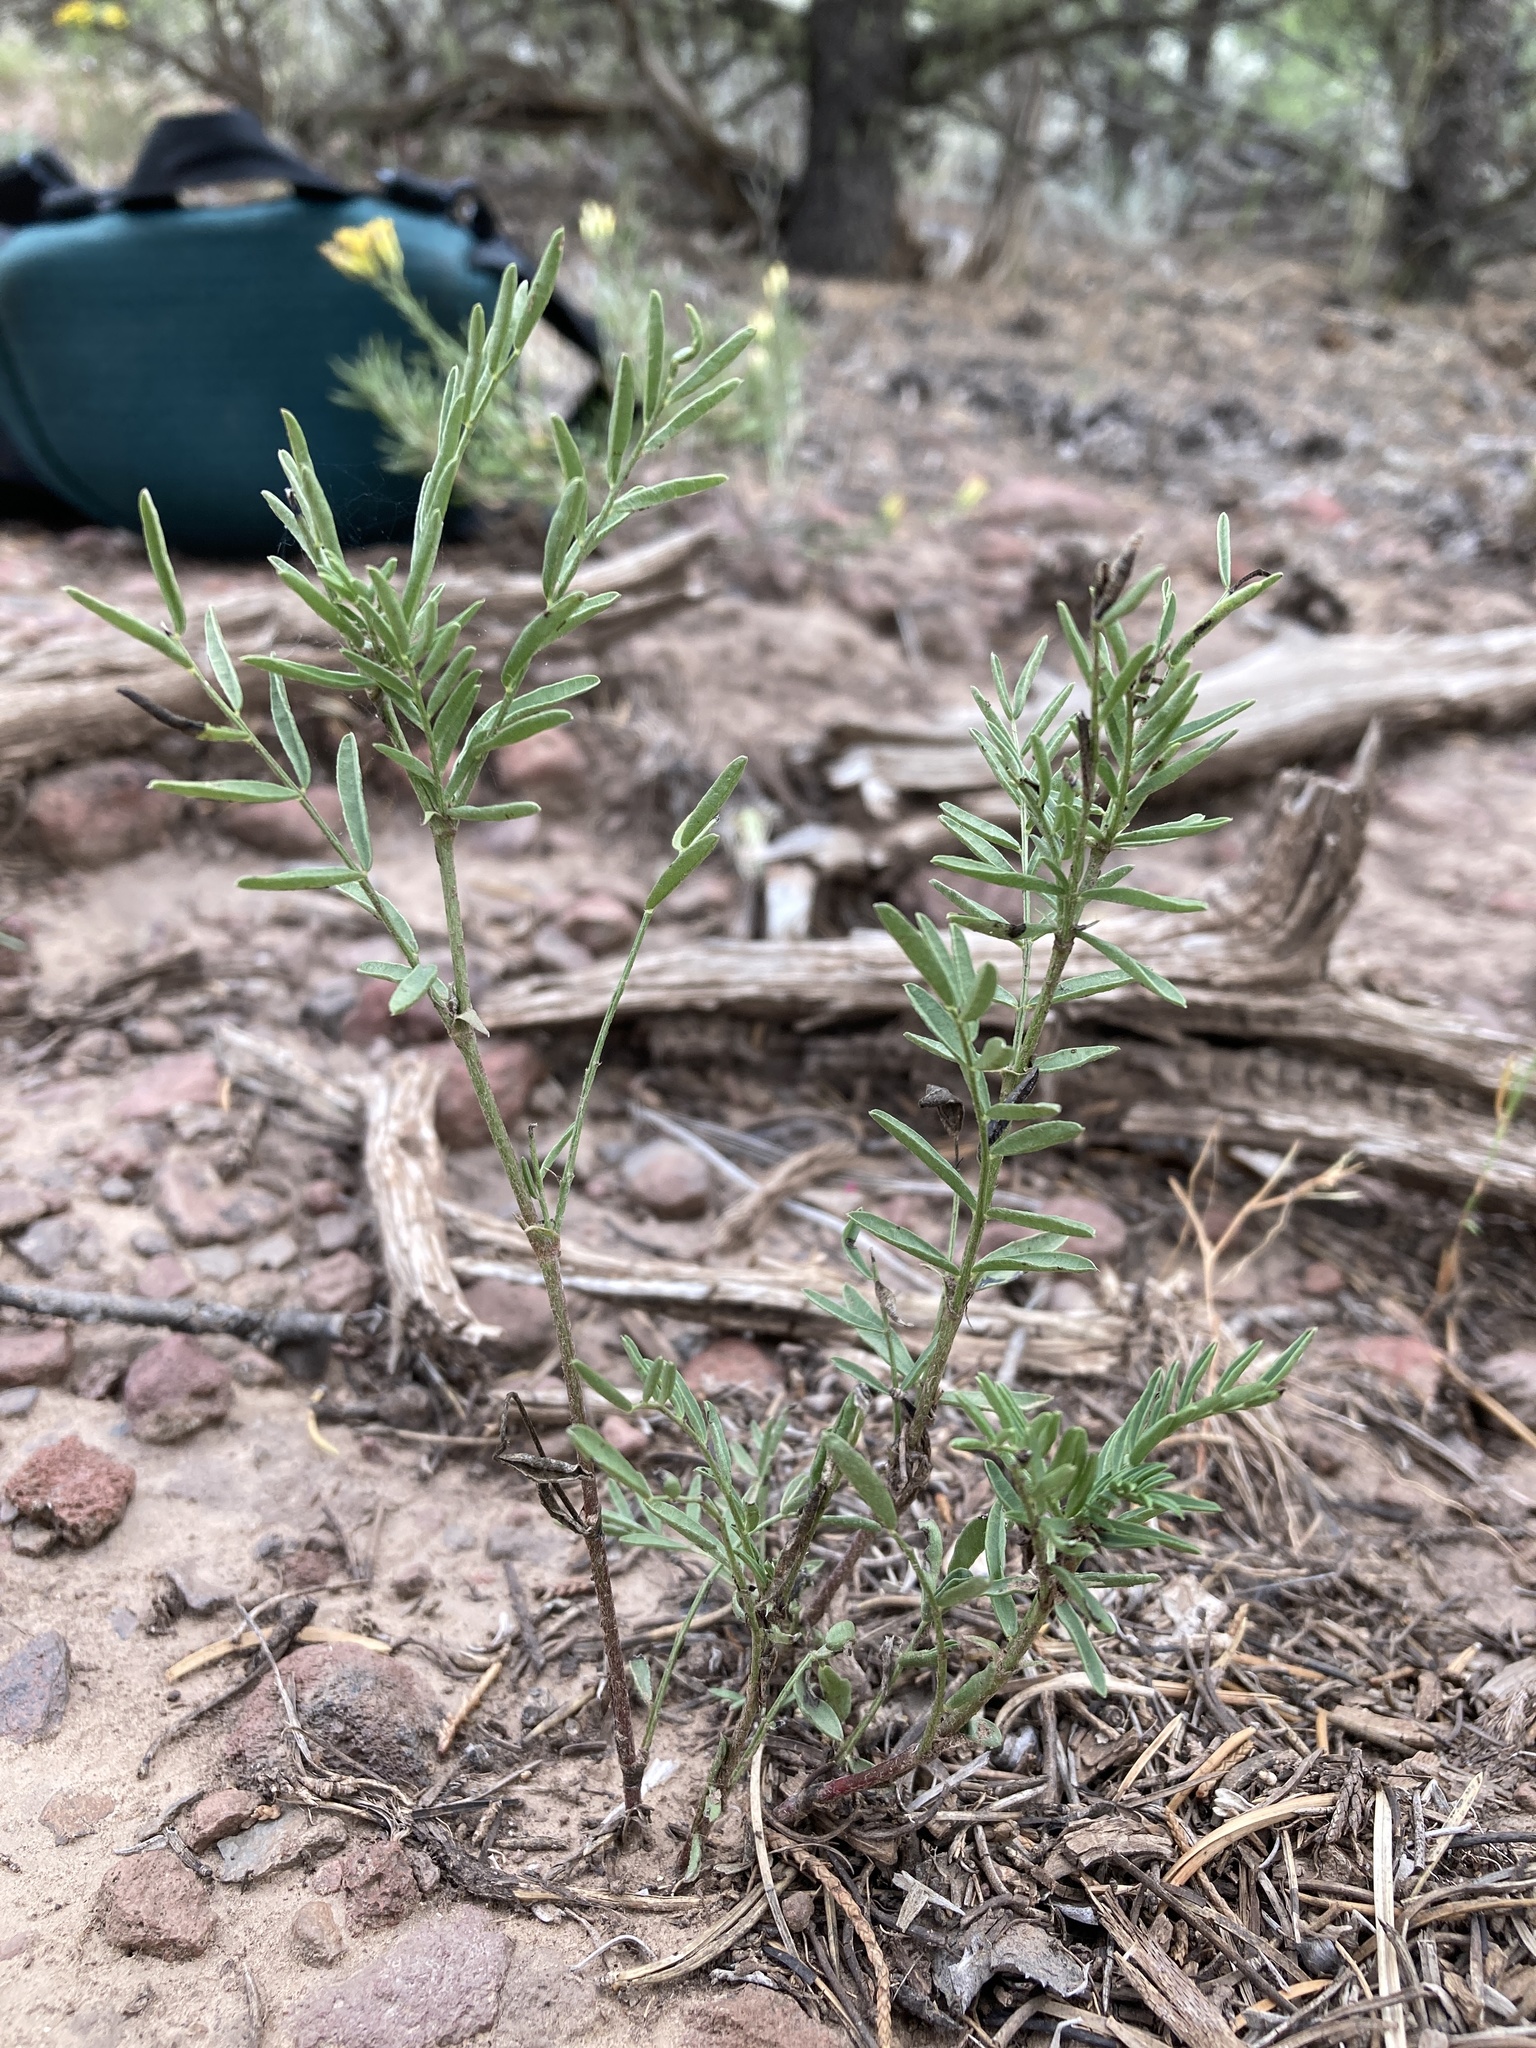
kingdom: Plantae
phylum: Tracheophyta
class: Magnoliopsida
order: Fabales
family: Fabaceae
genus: Astragalus
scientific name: Astragalus tenellus
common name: Pulse milk-vetch
